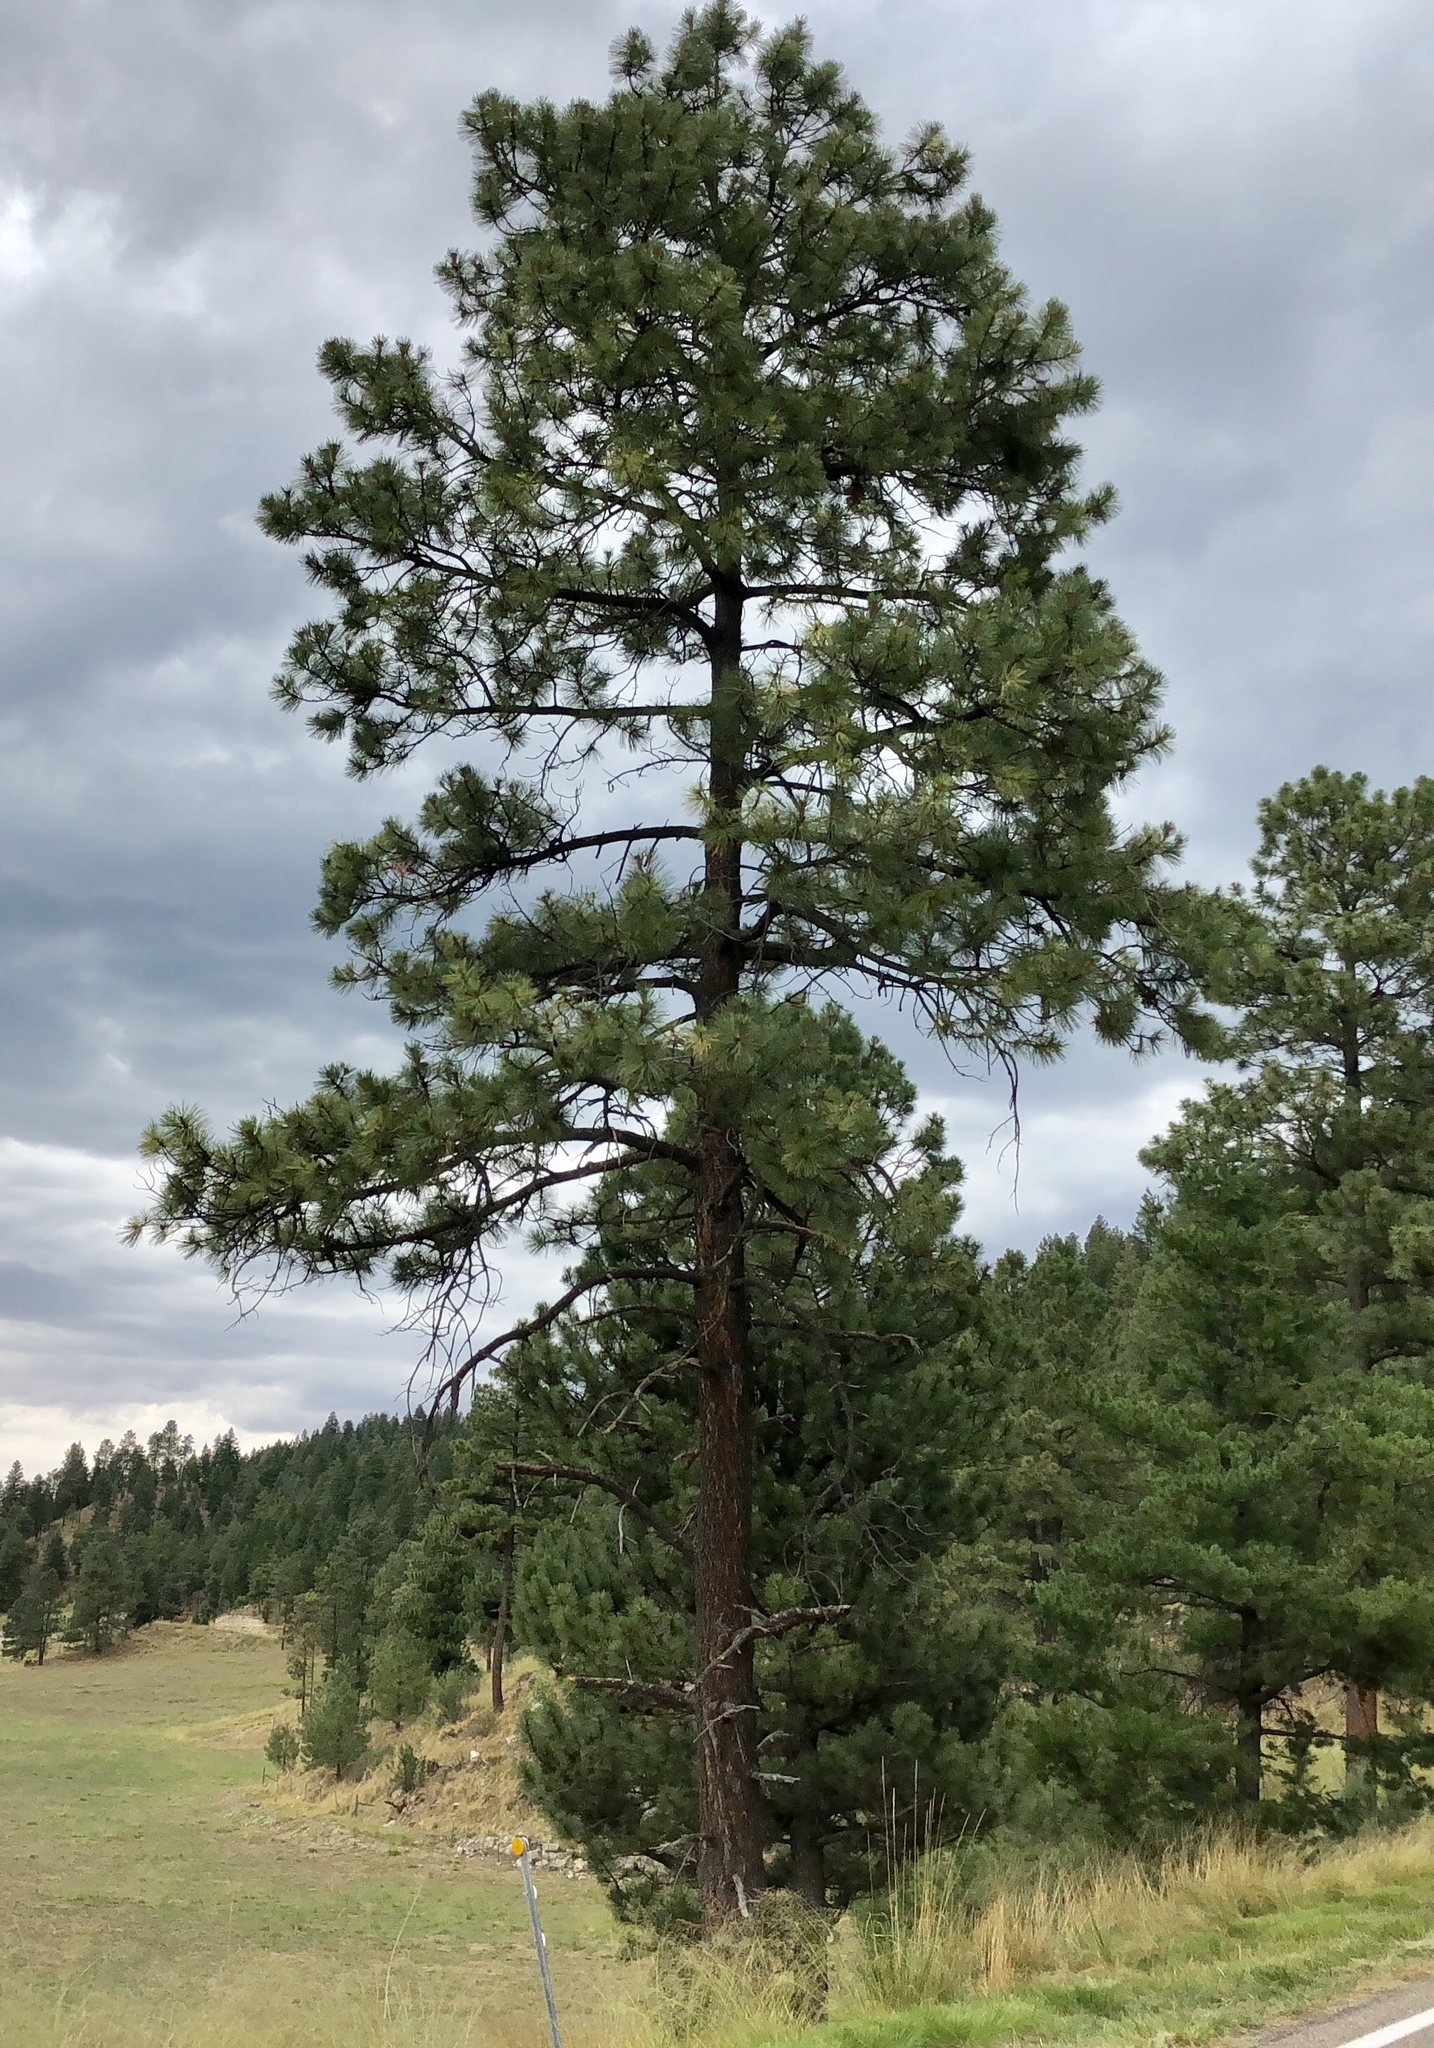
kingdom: Plantae
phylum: Tracheophyta
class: Pinopsida
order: Pinales
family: Pinaceae
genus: Pinus
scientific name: Pinus ponderosa
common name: Western yellow-pine
